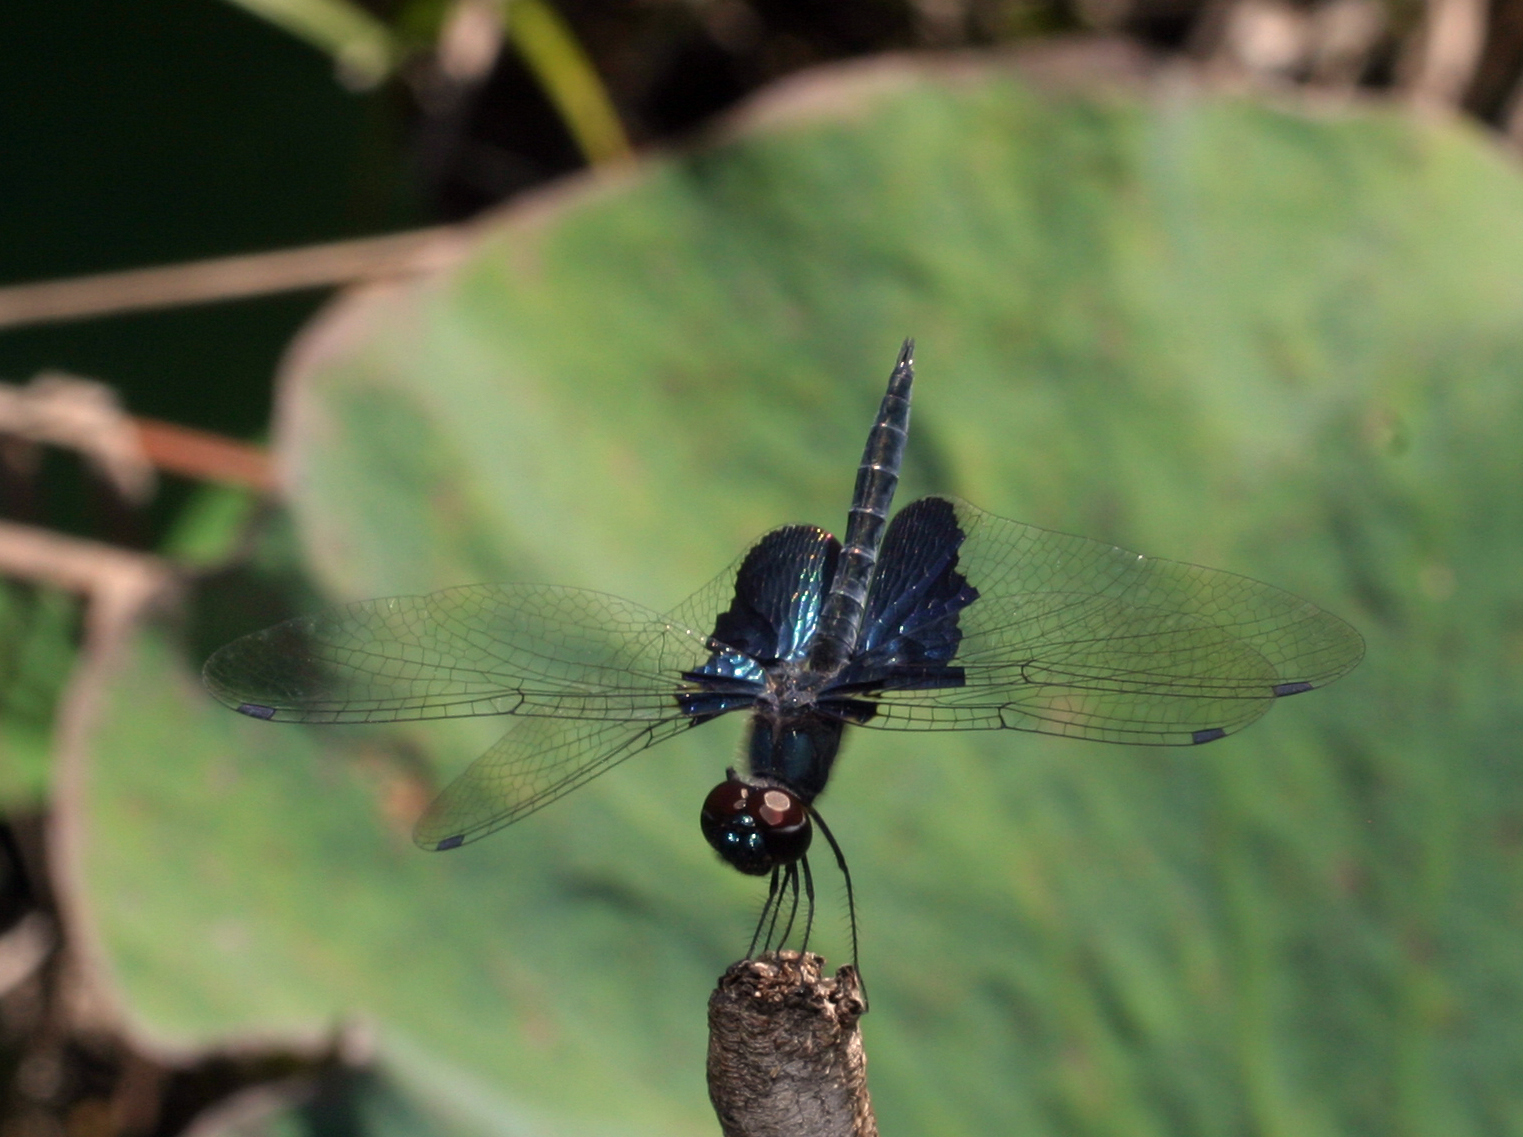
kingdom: Animalia
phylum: Arthropoda
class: Insecta
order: Odonata
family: Libellulidae
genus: Rhyothemis
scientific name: Rhyothemis triangularis
